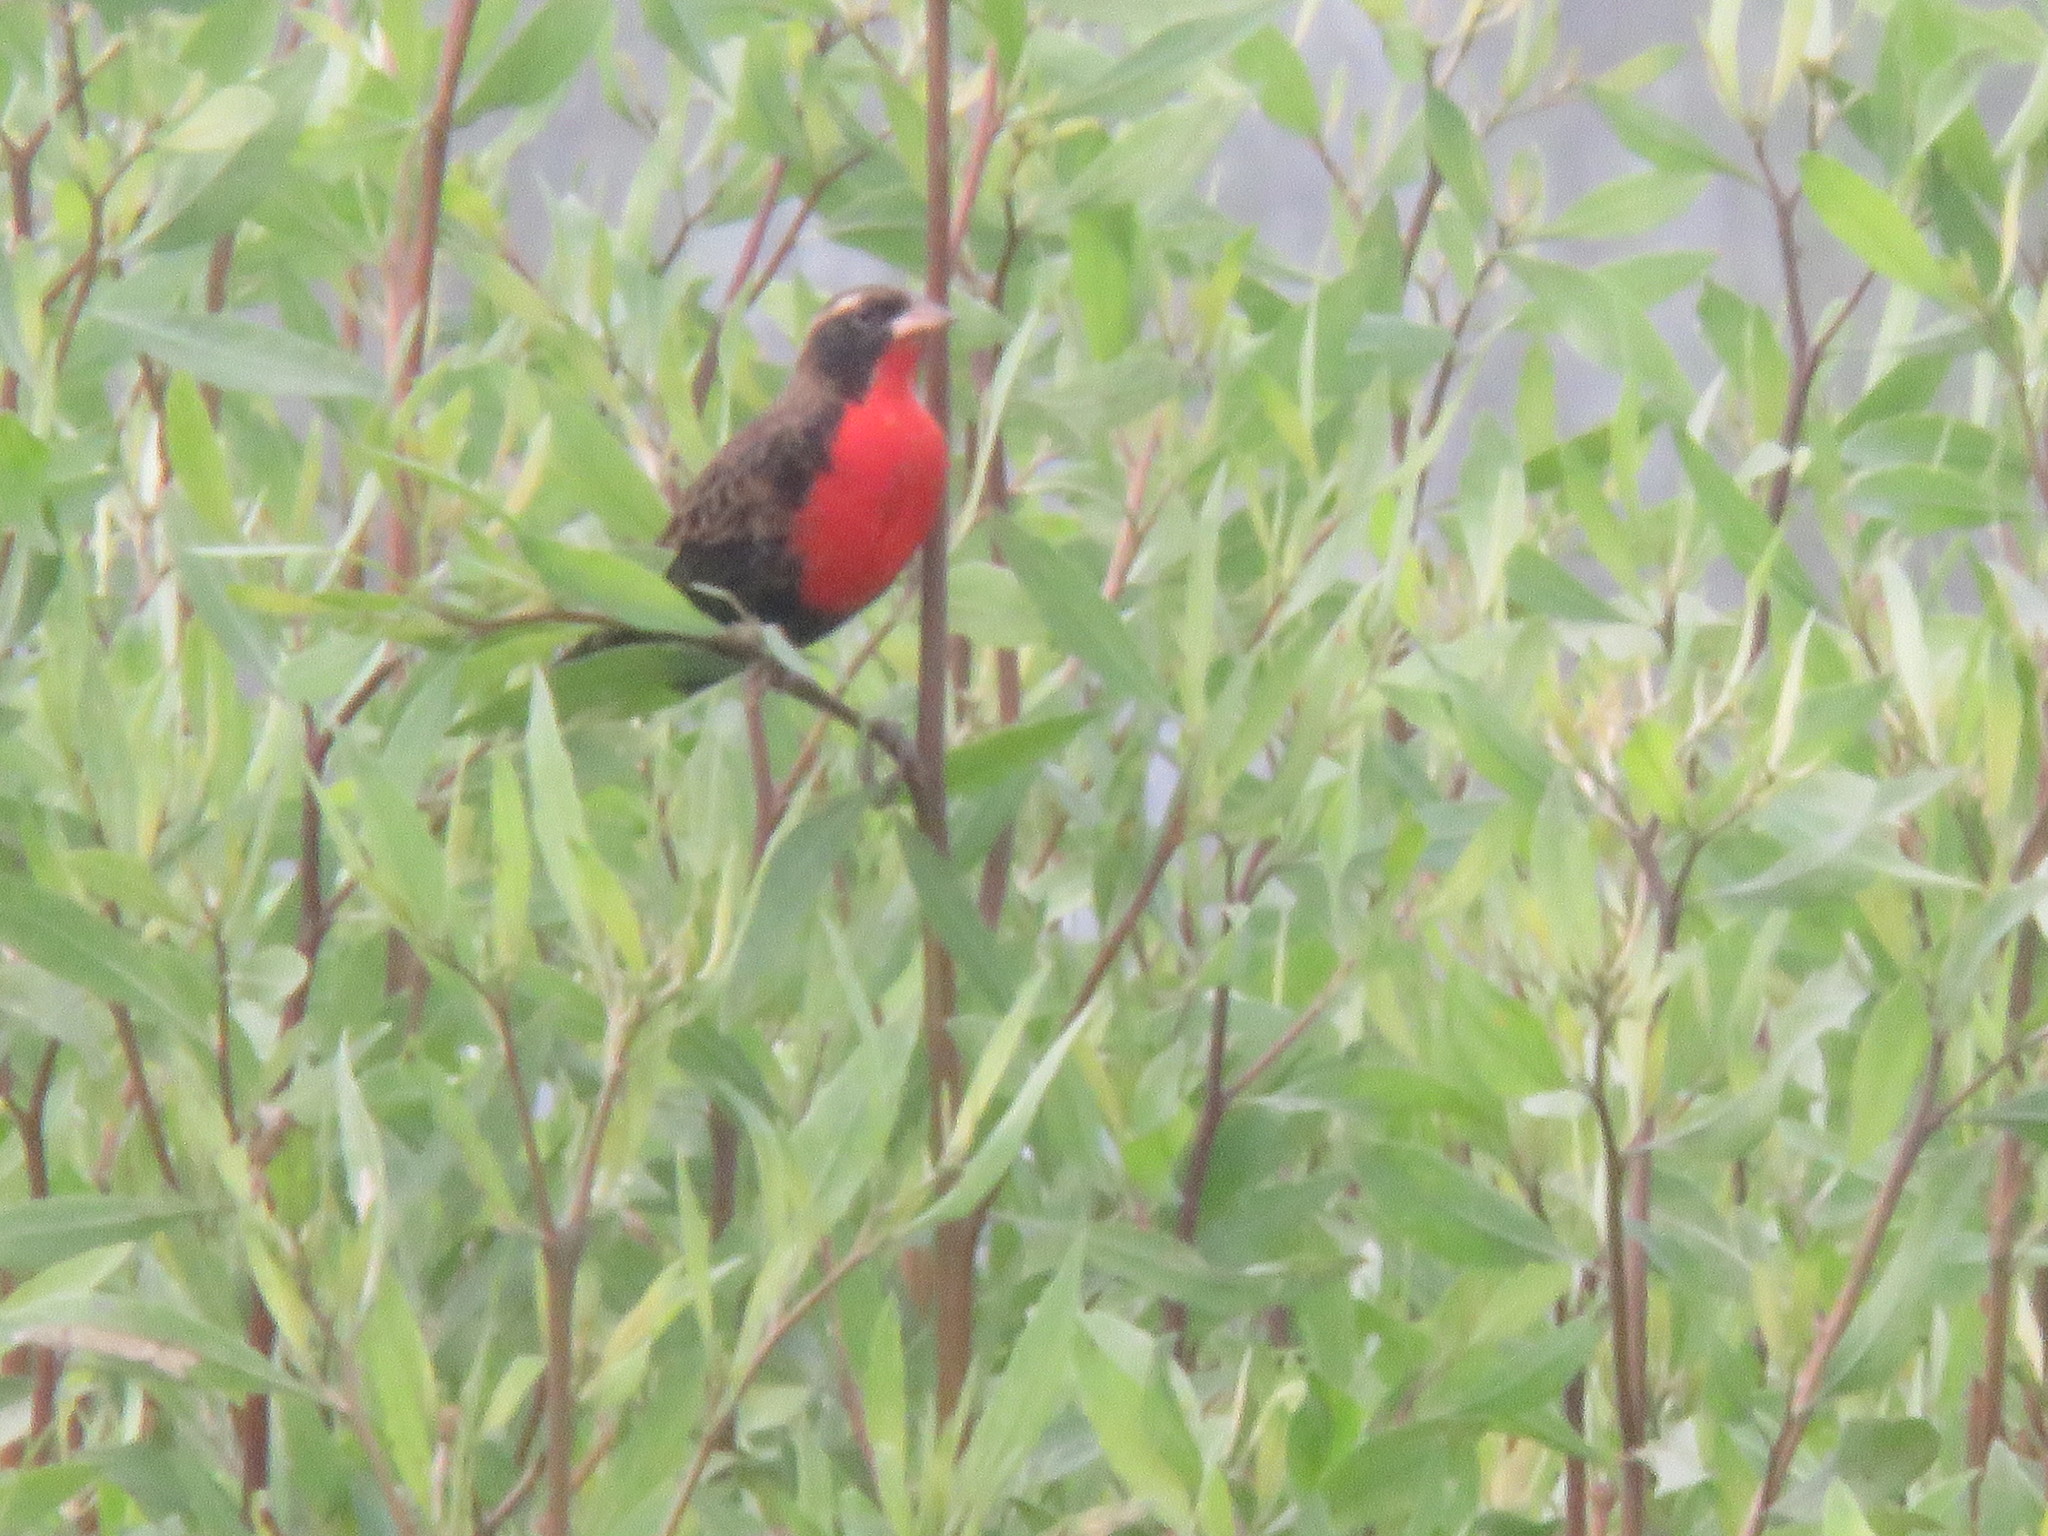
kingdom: Animalia
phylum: Chordata
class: Aves
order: Passeriformes
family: Icteridae
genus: Sturnella
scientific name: Sturnella superciliaris
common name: White-browed blackbird
